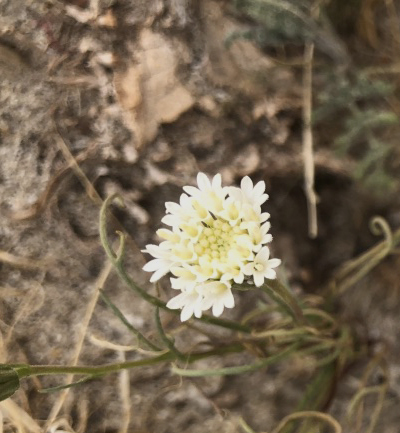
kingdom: Plantae
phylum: Tracheophyta
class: Magnoliopsida
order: Asterales
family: Asteraceae
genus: Chaenactis
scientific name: Chaenactis fremontii
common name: Fremont pincushion
